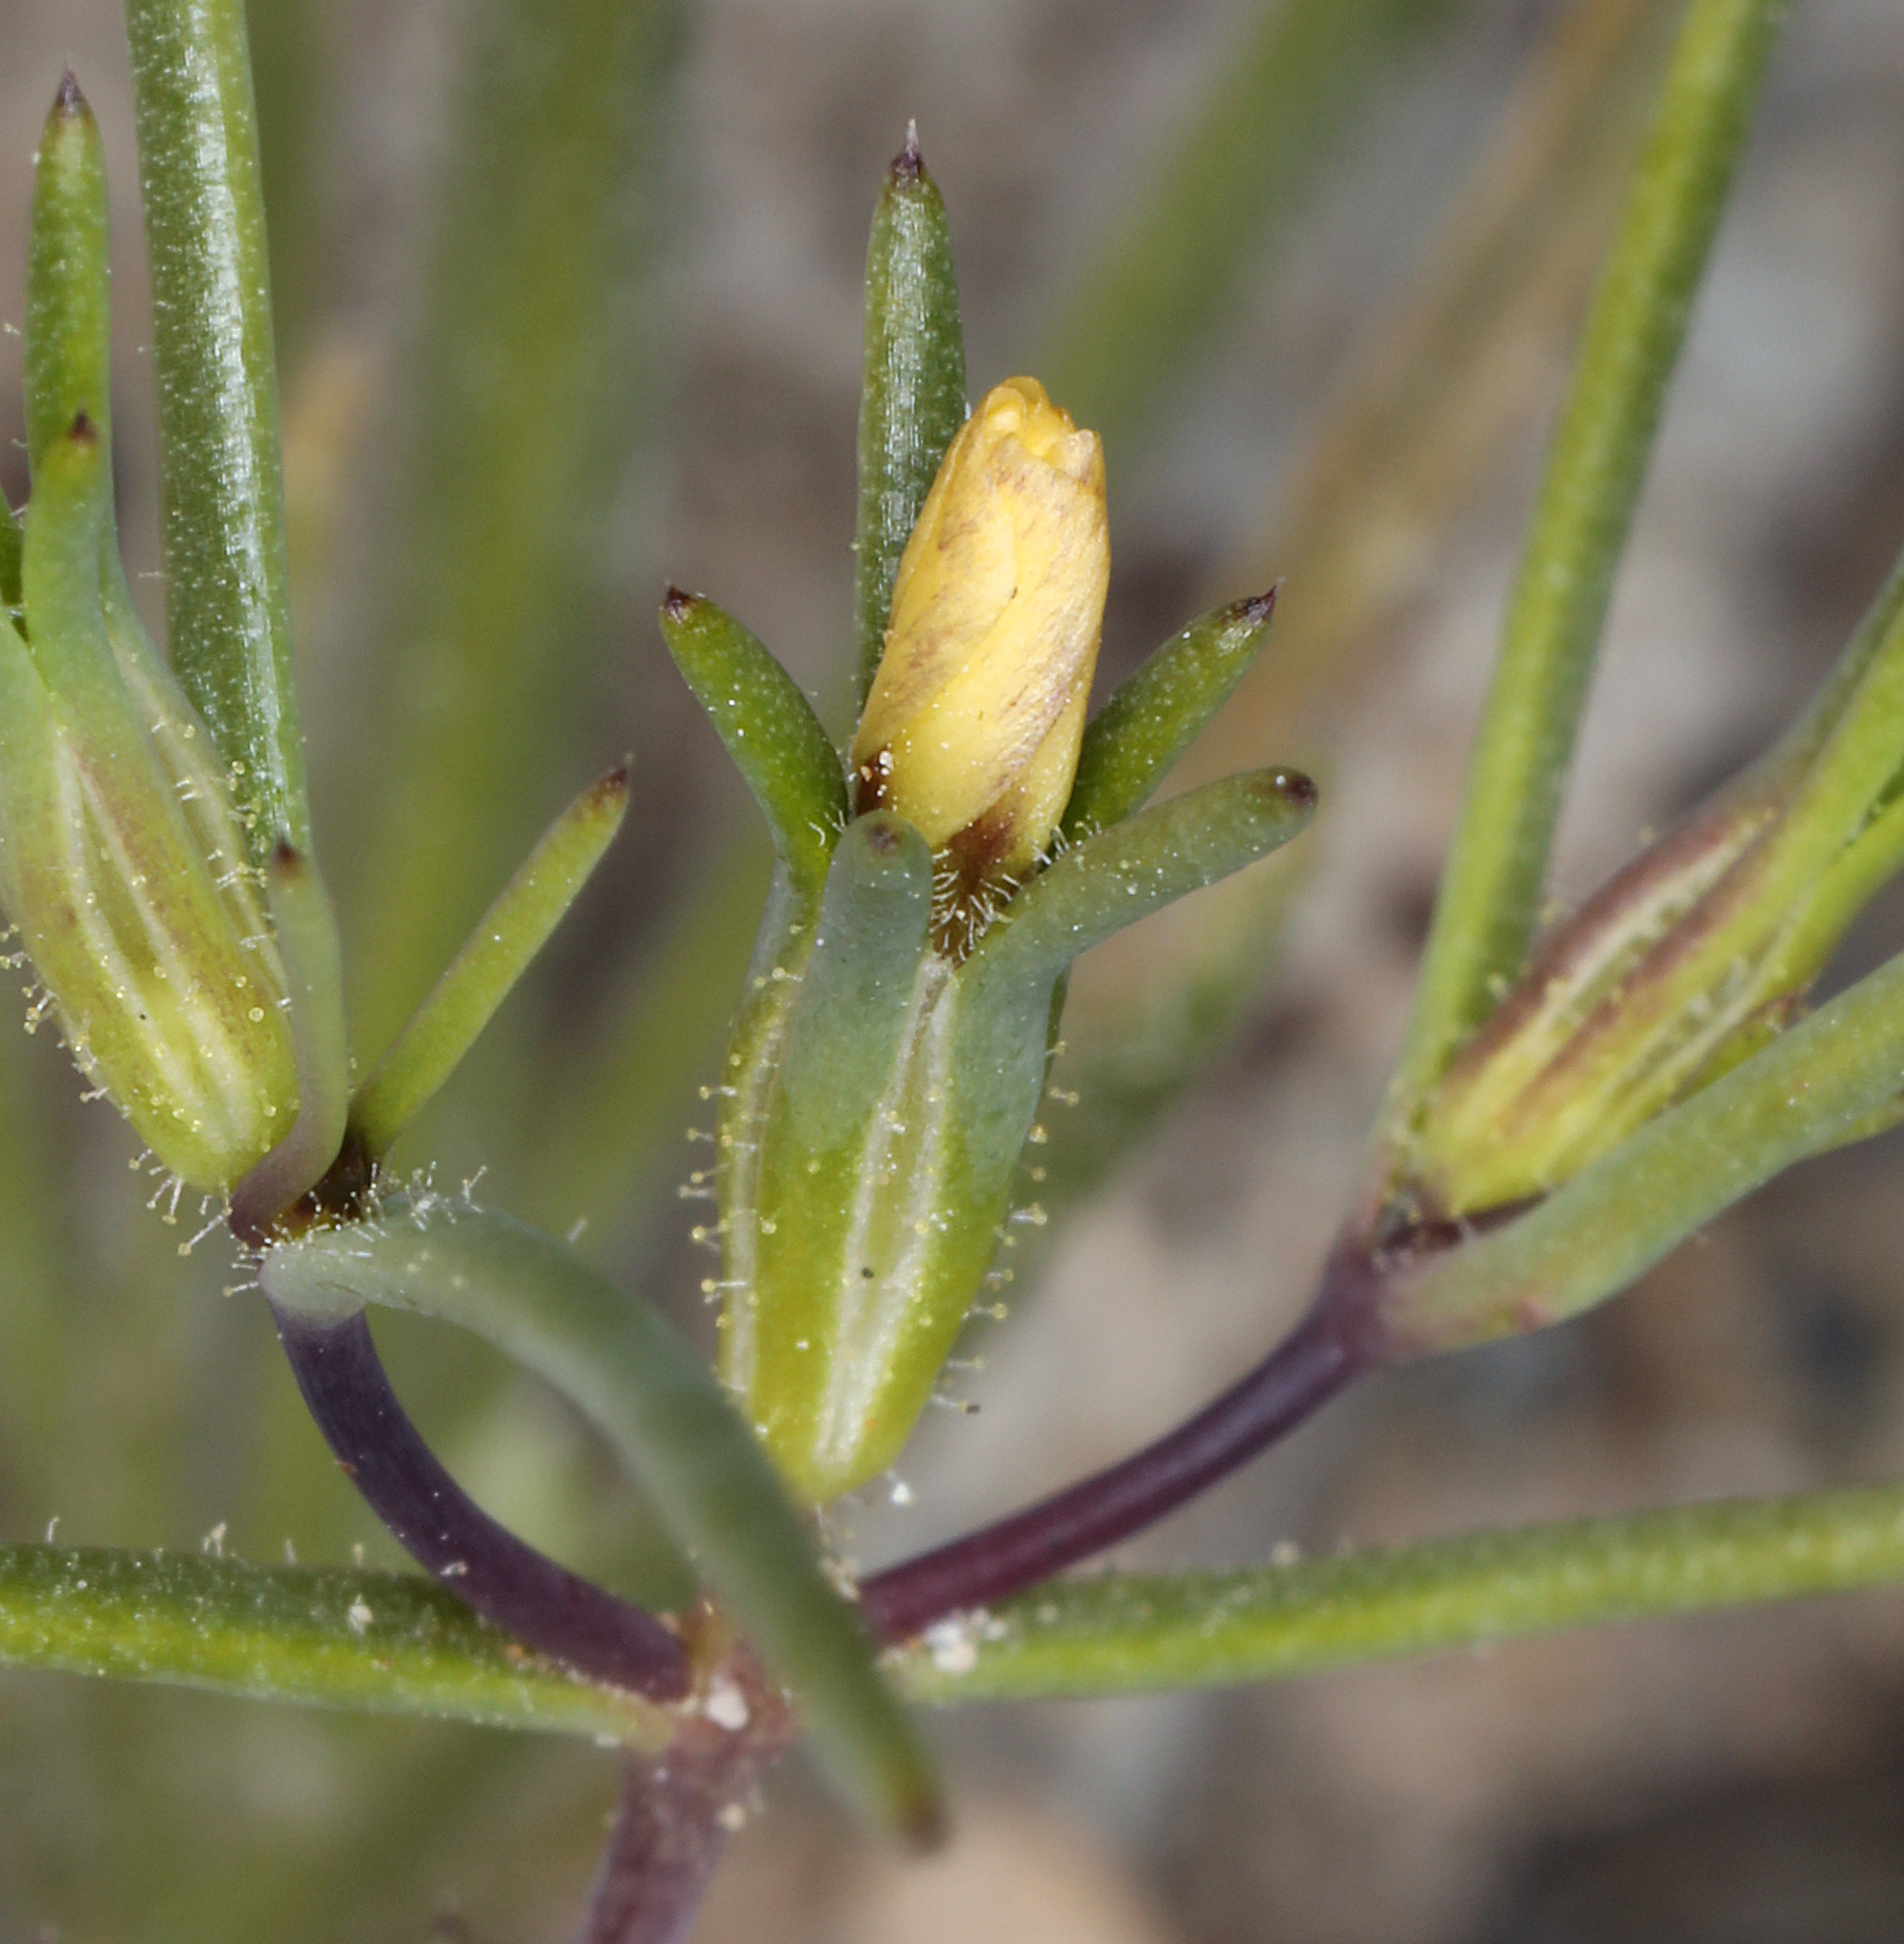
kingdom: Plantae
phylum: Tracheophyta
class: Magnoliopsida
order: Ericales
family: Polemoniaceae
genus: Linanthus
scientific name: Linanthus jonesii
